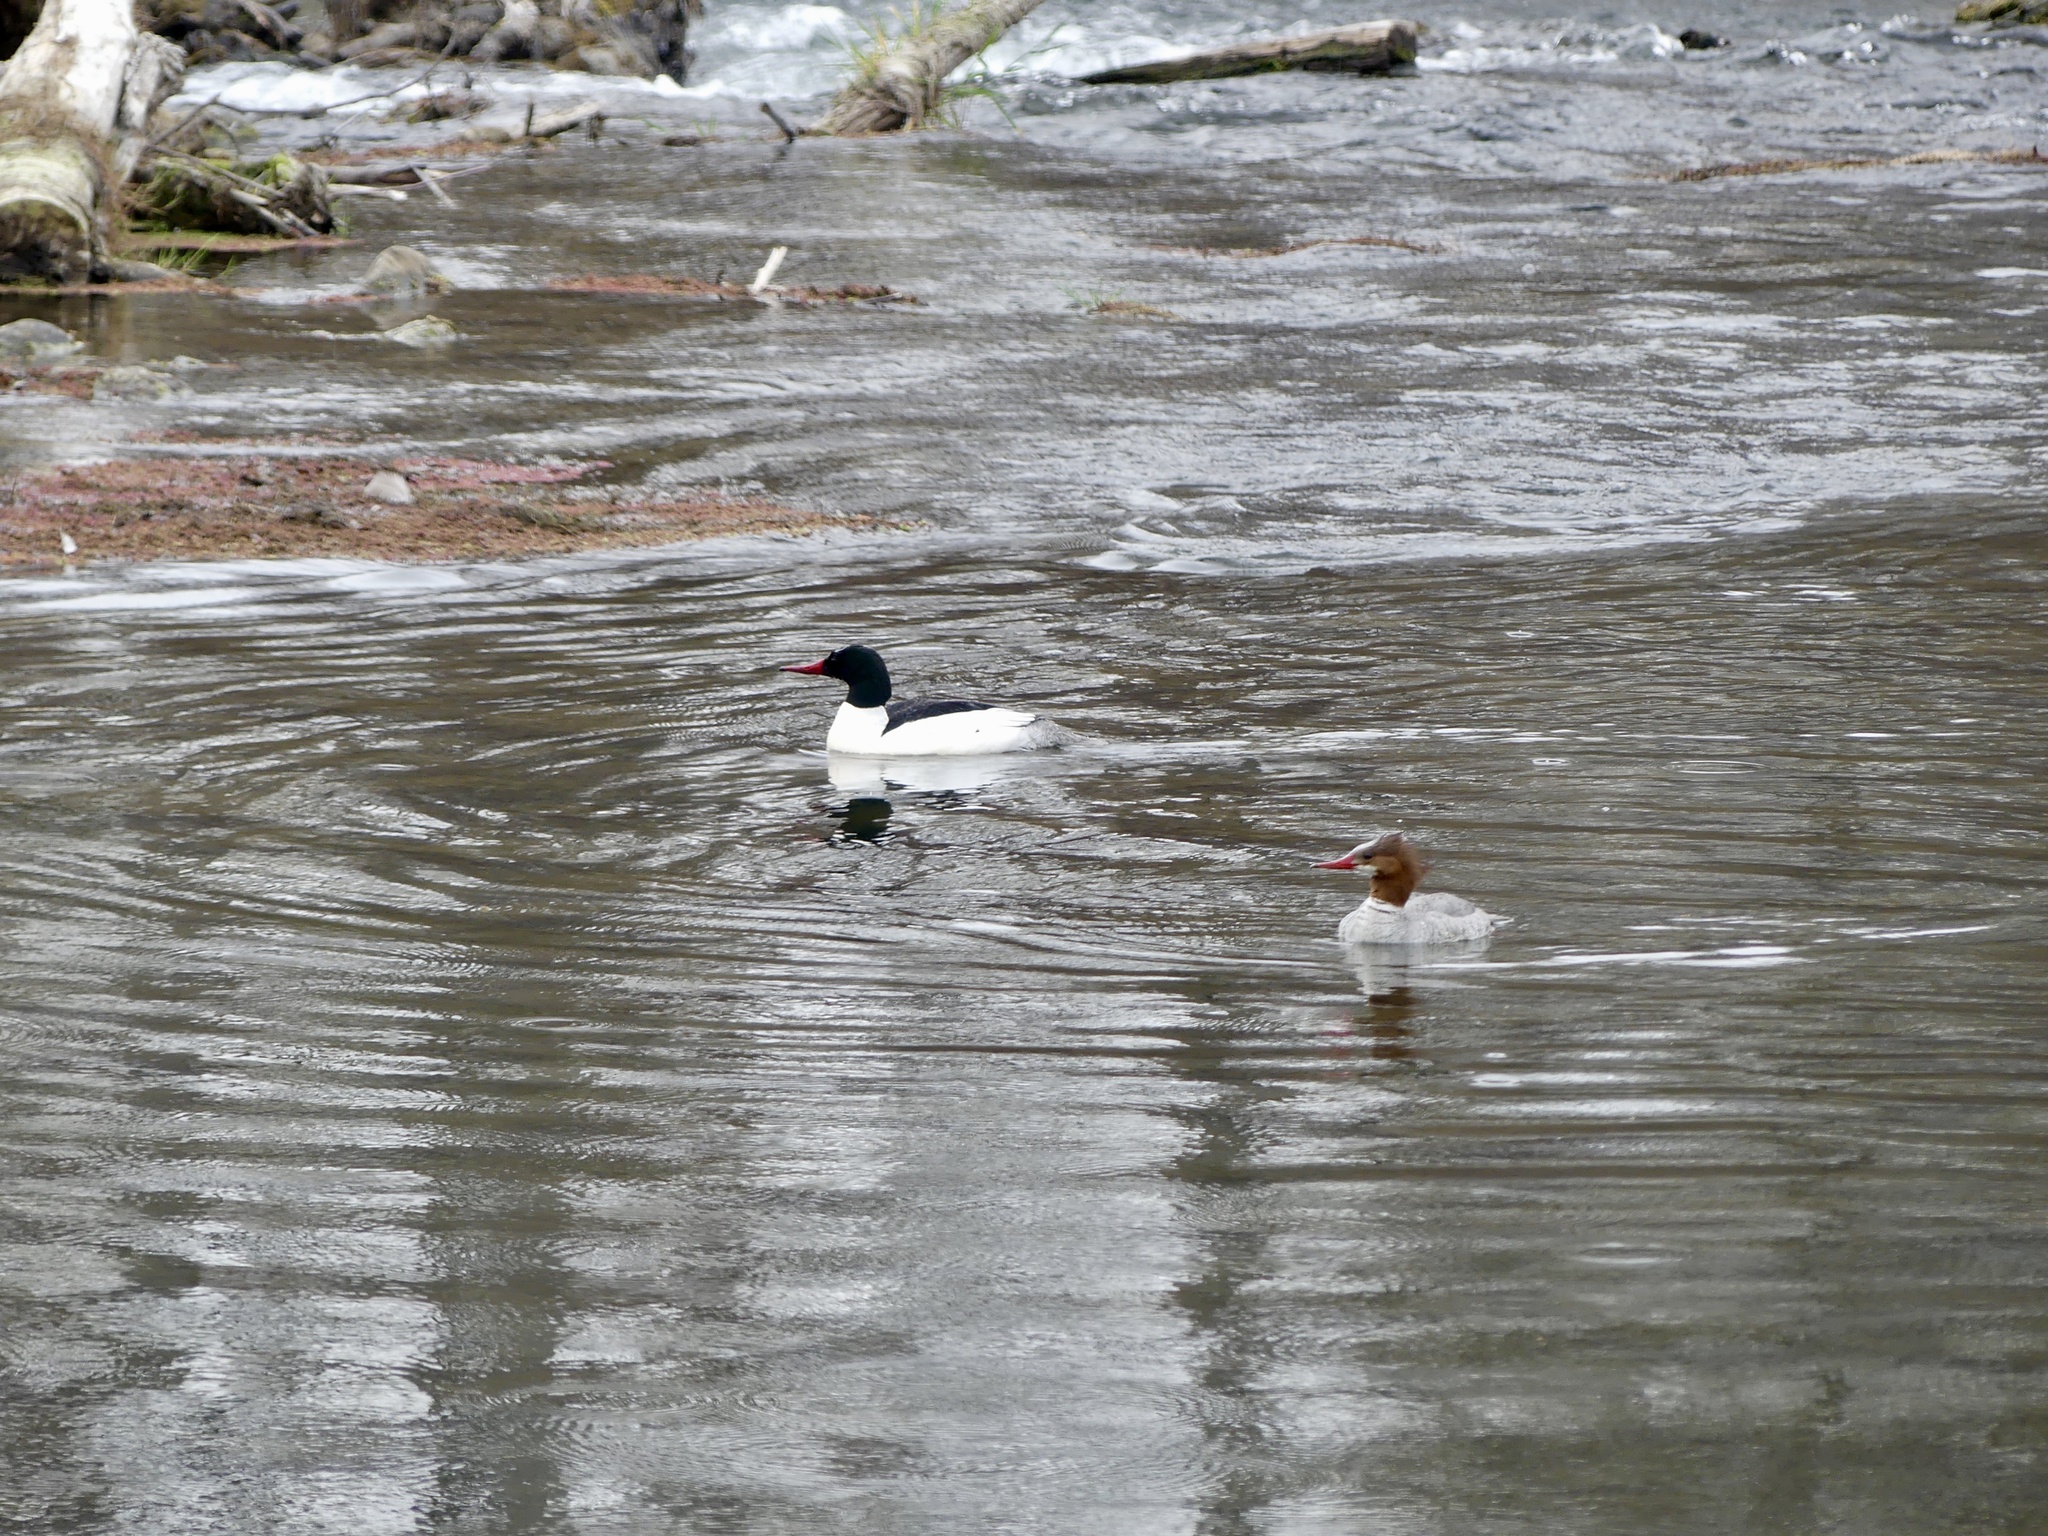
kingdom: Animalia
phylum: Chordata
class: Aves
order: Anseriformes
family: Anatidae
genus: Mergus
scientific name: Mergus merganser
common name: Common merganser
